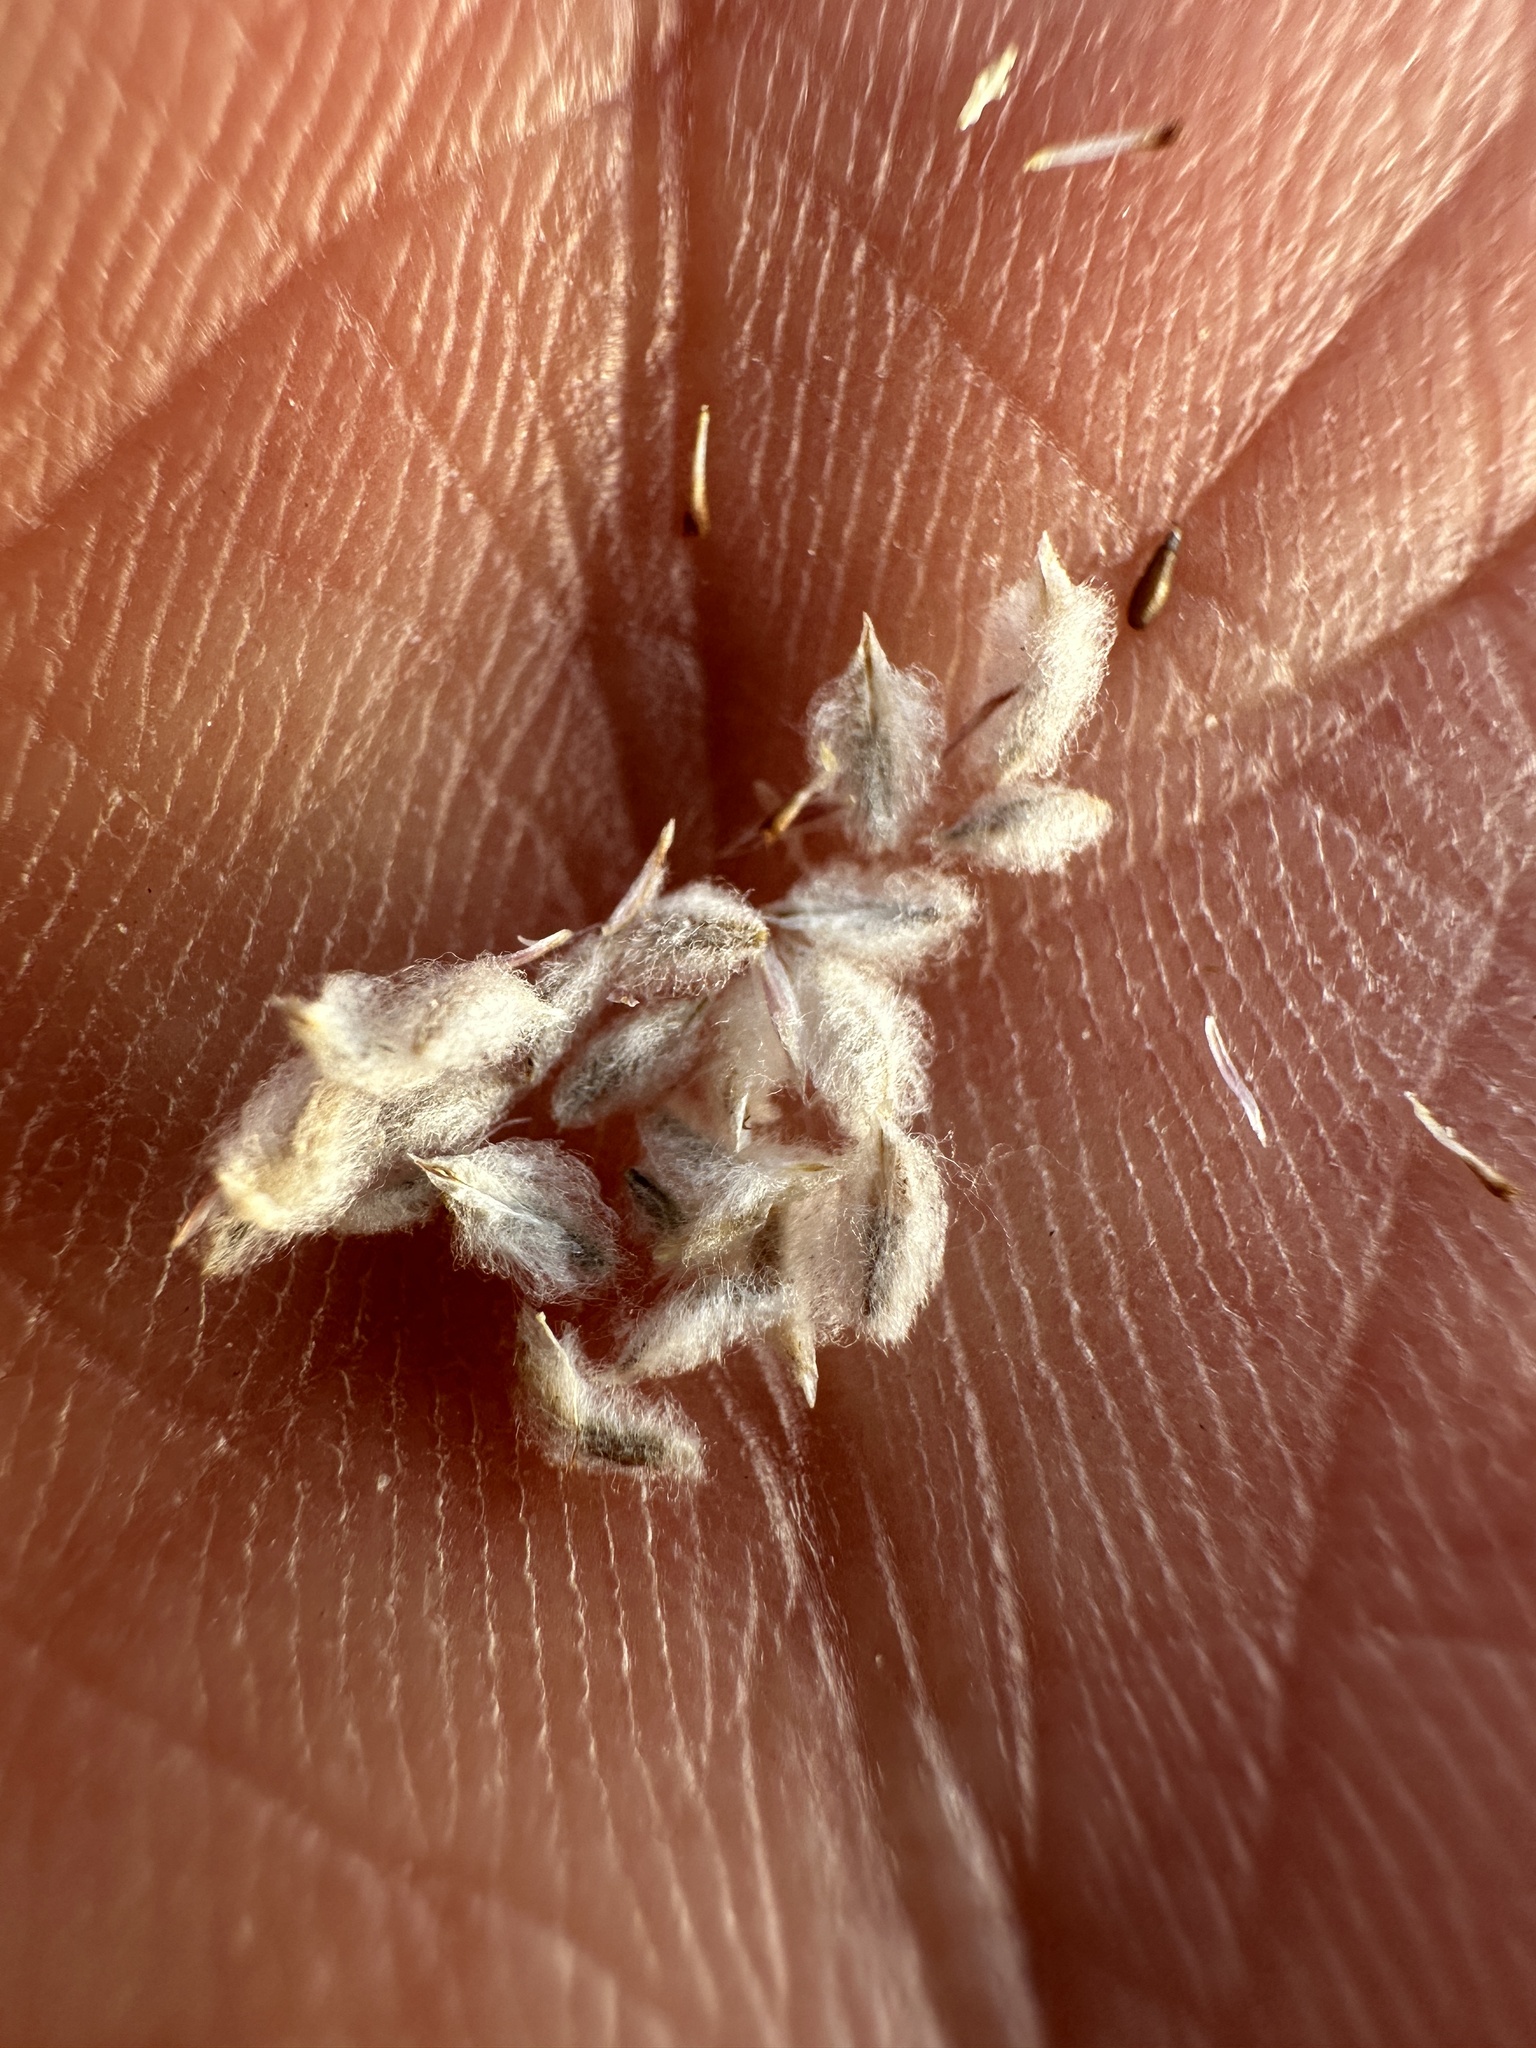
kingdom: Plantae
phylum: Tracheophyta
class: Magnoliopsida
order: Asterales
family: Asteraceae
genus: Stylocline
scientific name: Stylocline psilocarphoides
